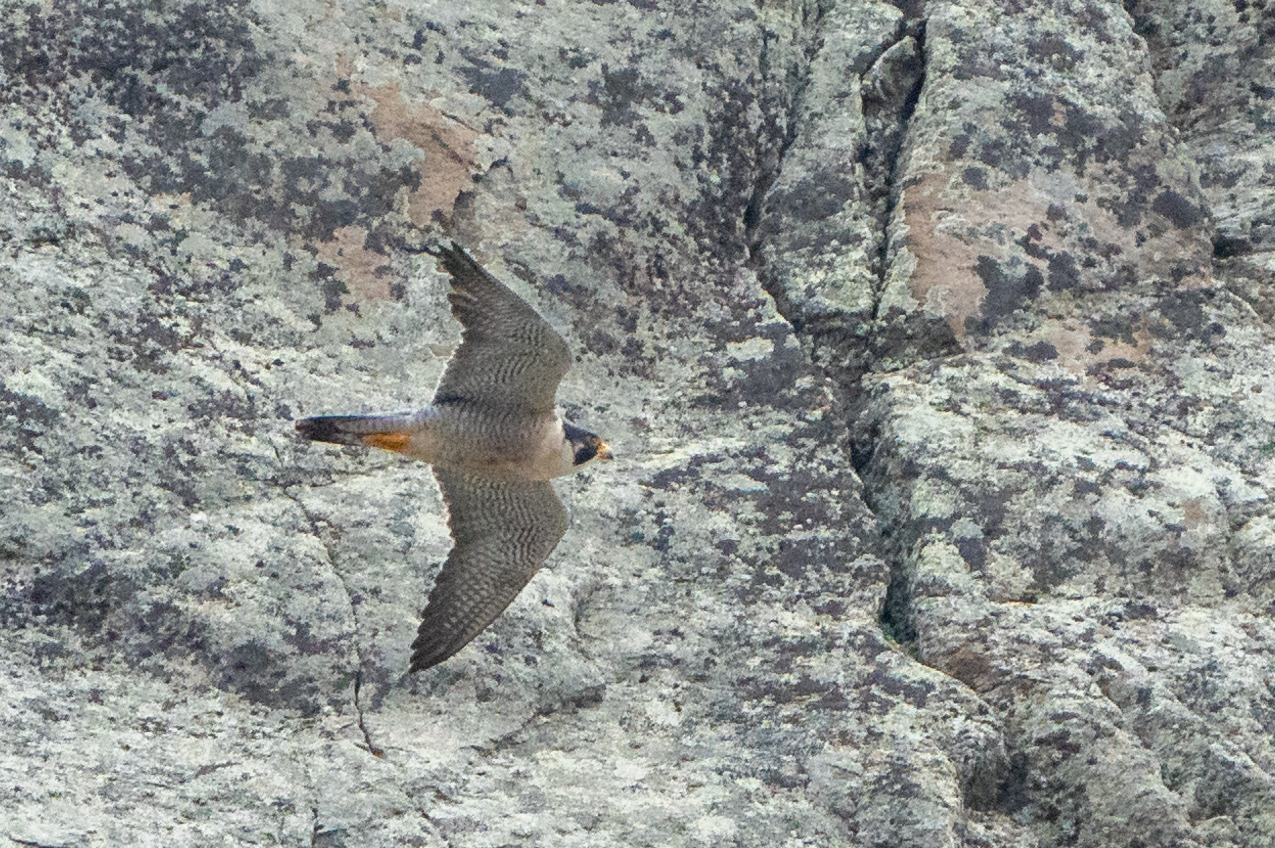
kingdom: Animalia
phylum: Chordata
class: Aves
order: Falconiformes
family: Falconidae
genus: Falco
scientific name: Falco peregrinus
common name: Peregrine falcon
